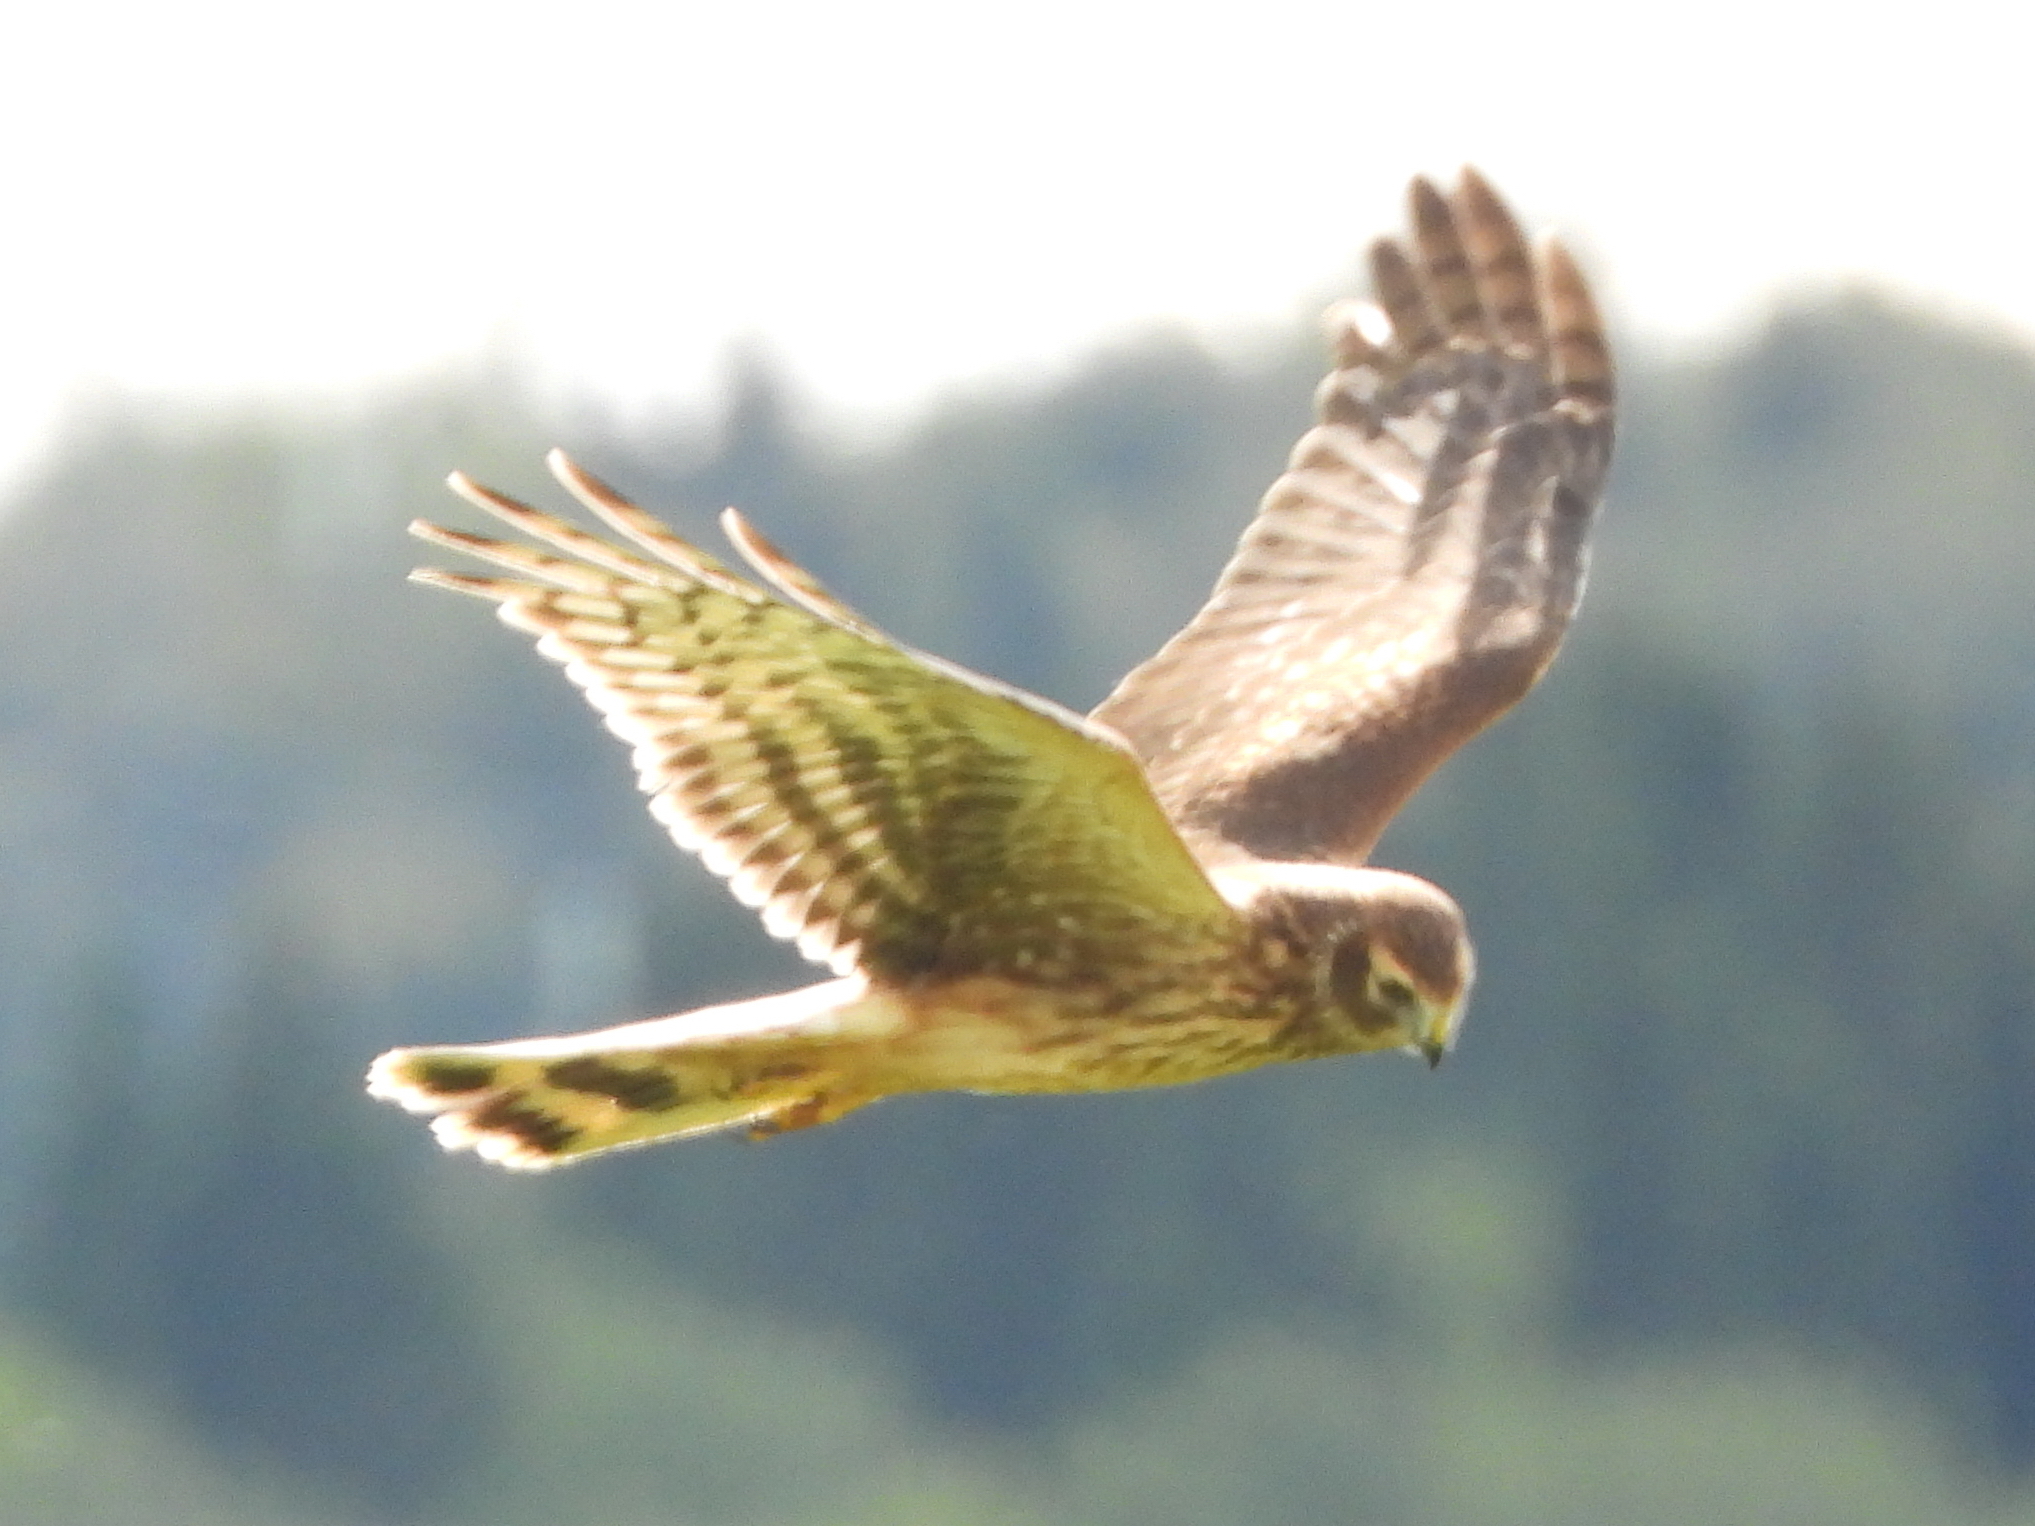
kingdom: Animalia
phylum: Chordata
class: Aves
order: Accipitriformes
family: Accipitridae
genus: Circus
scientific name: Circus cyaneus
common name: Hen harrier
